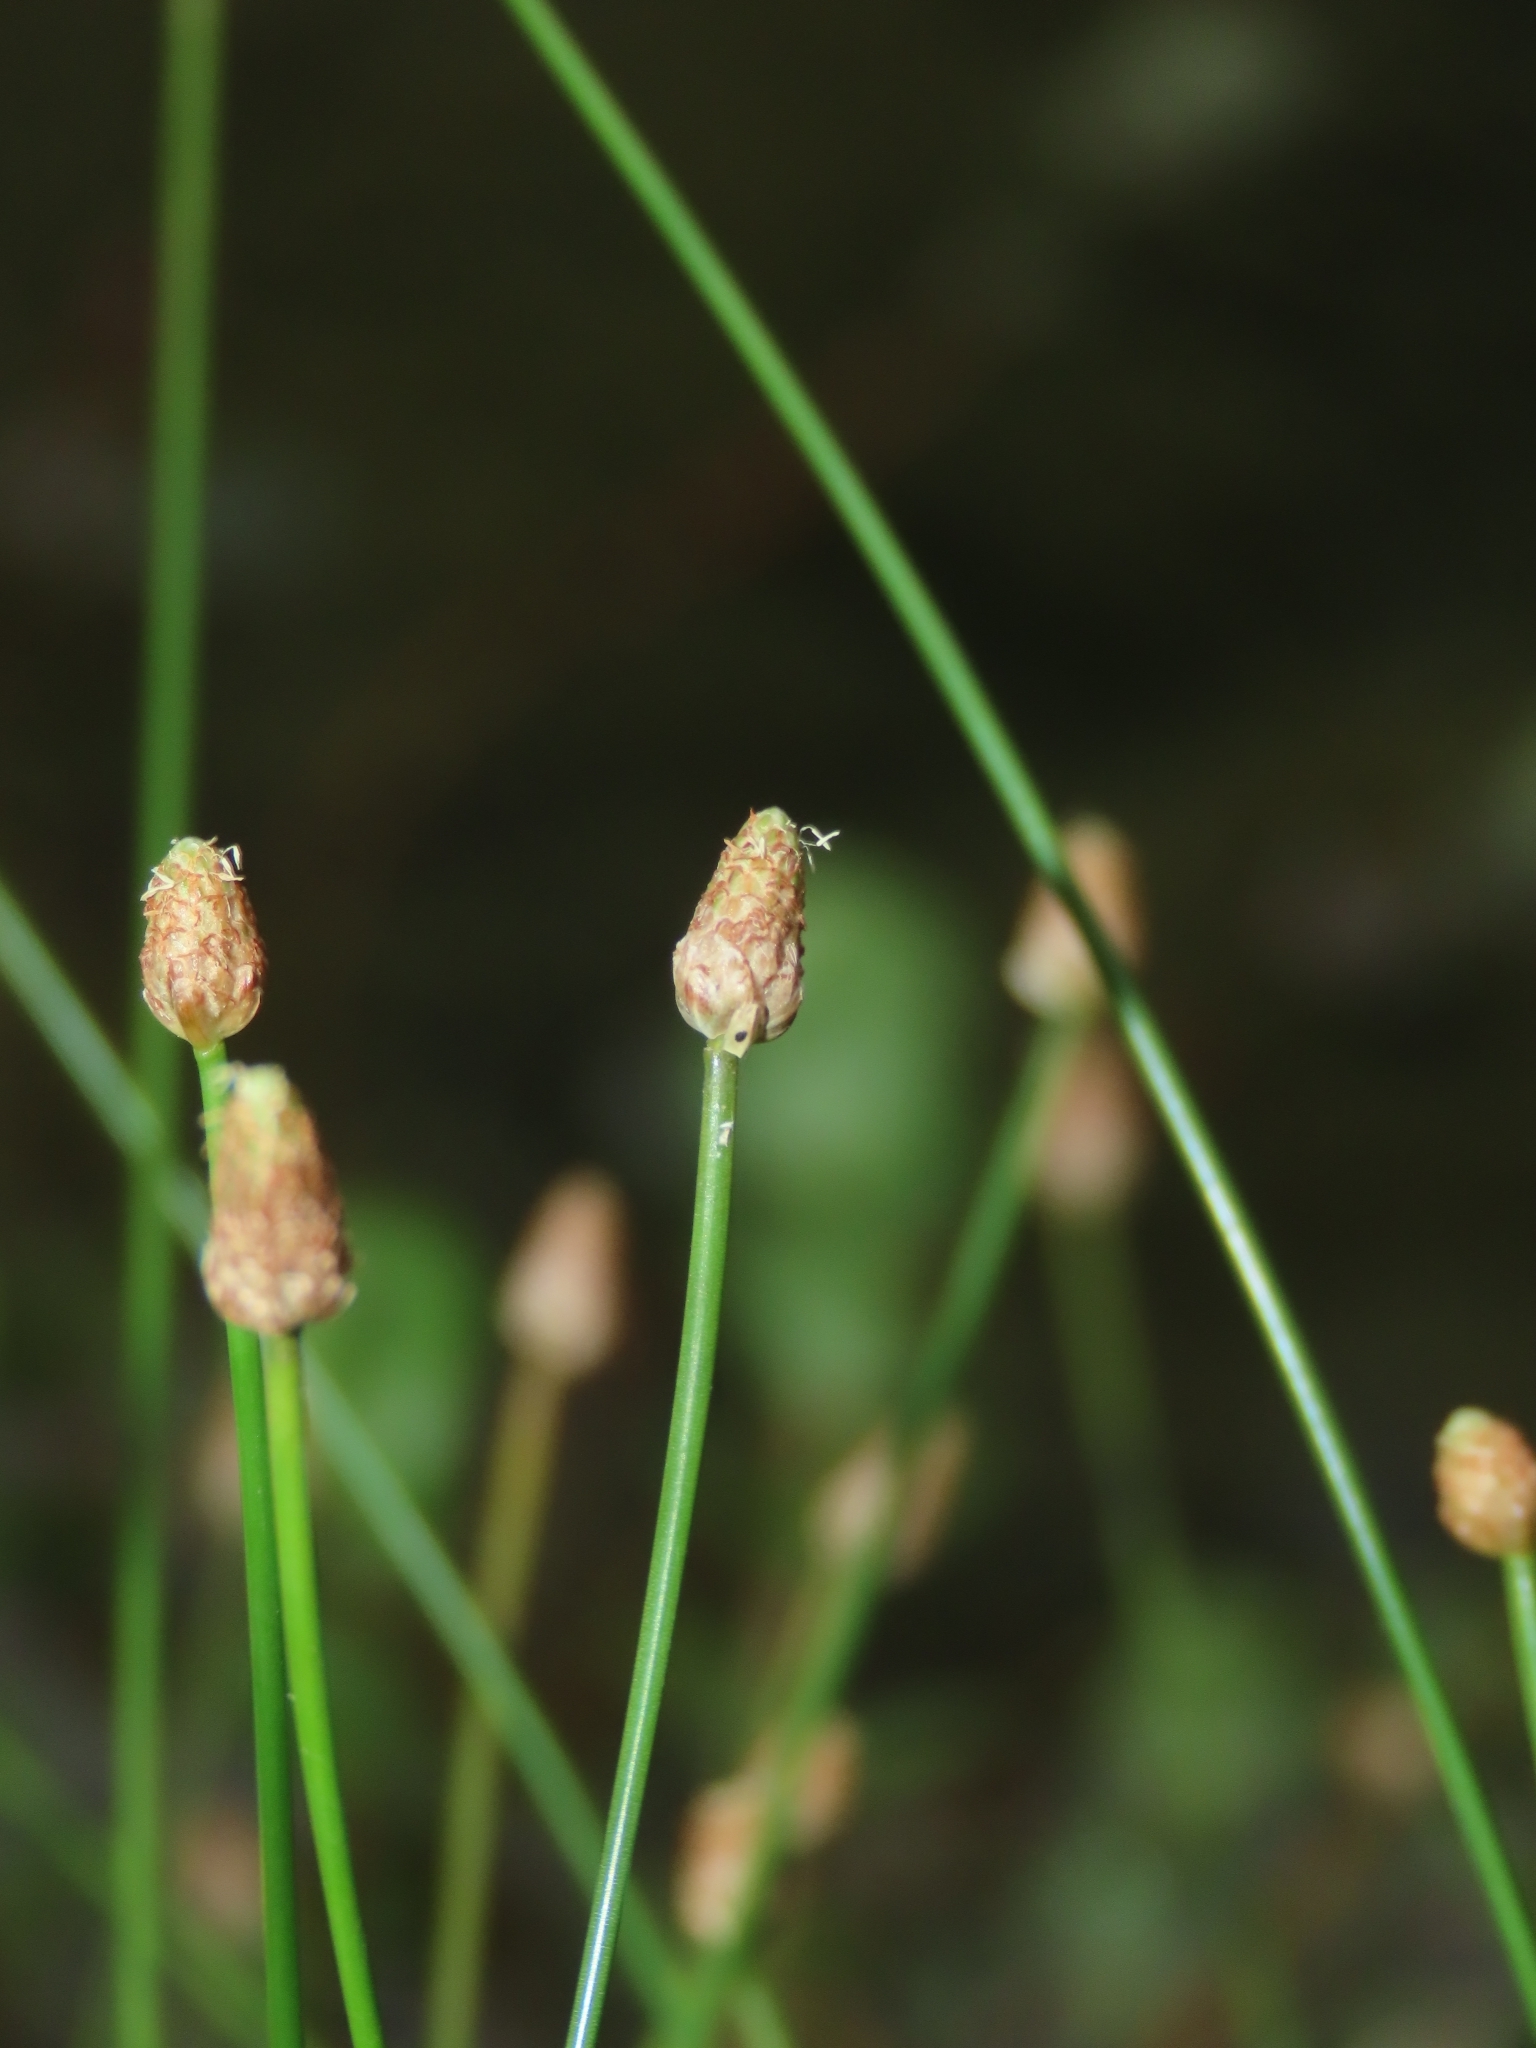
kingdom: Plantae
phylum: Tracheophyta
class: Liliopsida
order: Poales
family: Cyperaceae
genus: Eleocharis
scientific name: Eleocharis geniculata
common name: Canada spikesedge
